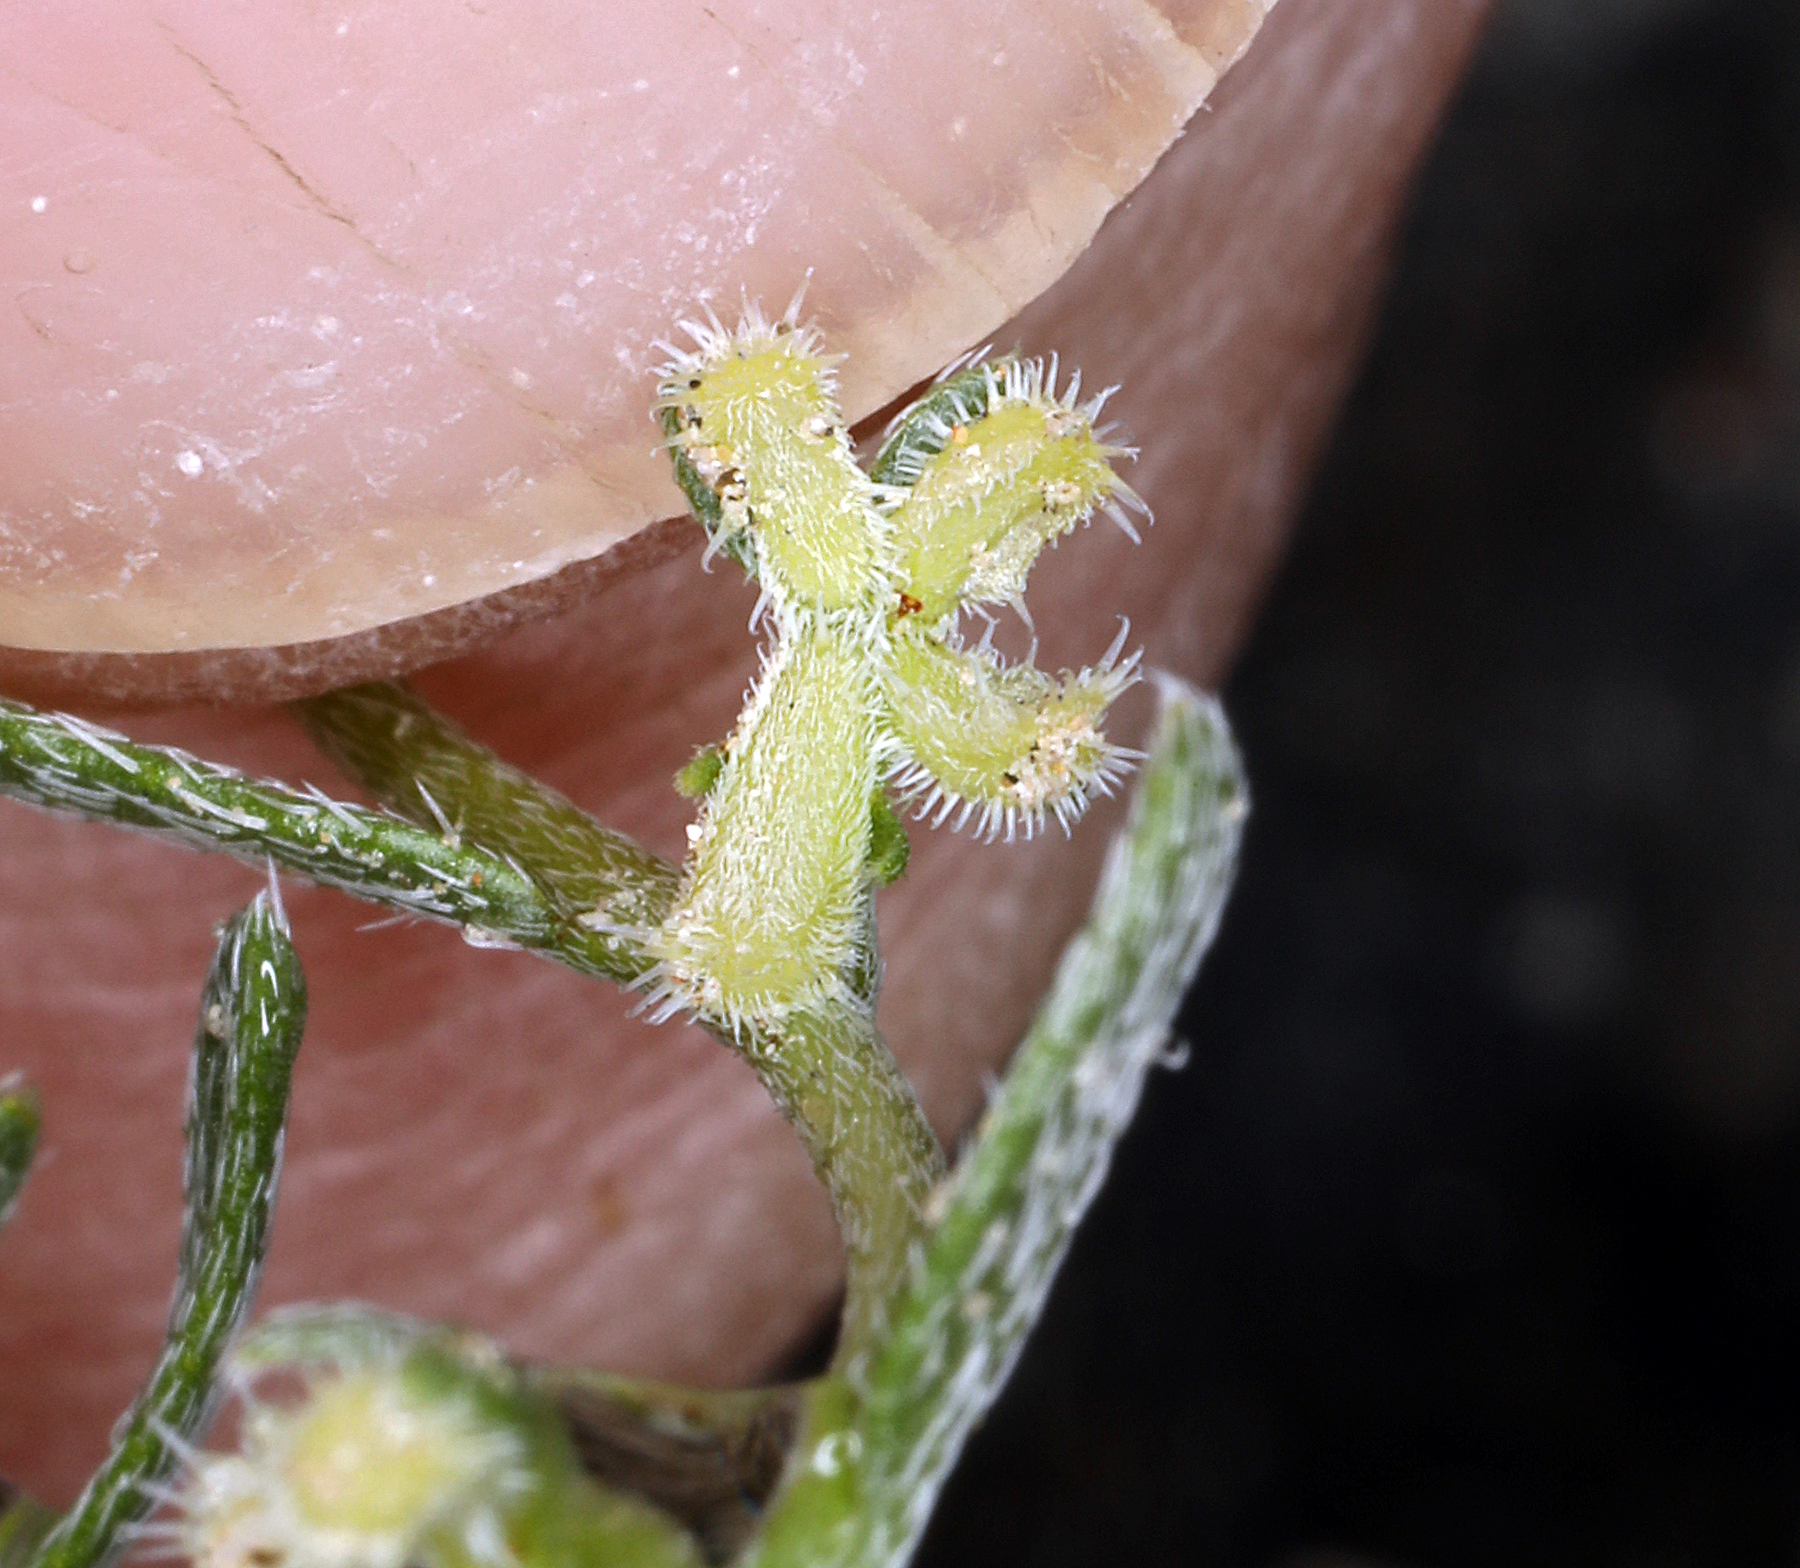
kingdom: Plantae
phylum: Tracheophyta
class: Magnoliopsida
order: Boraginales
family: Boraginaceae
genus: Pectocarya
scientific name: Pectocarya heterocarpa
